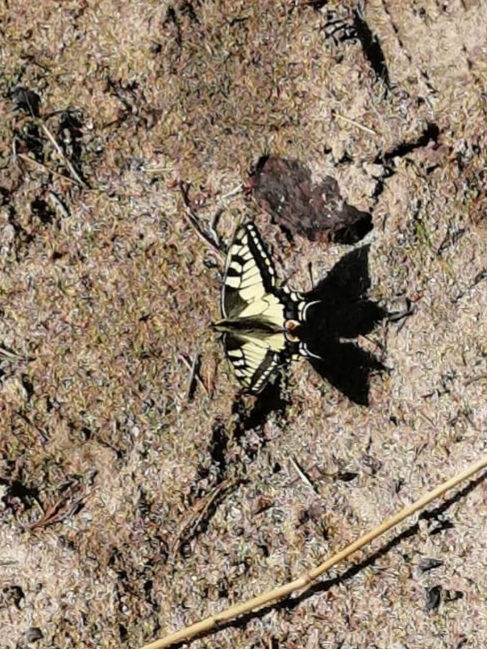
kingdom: Animalia
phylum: Arthropoda
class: Insecta
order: Lepidoptera
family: Papilionidae
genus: Papilio
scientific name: Papilio machaon
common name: Swallowtail
